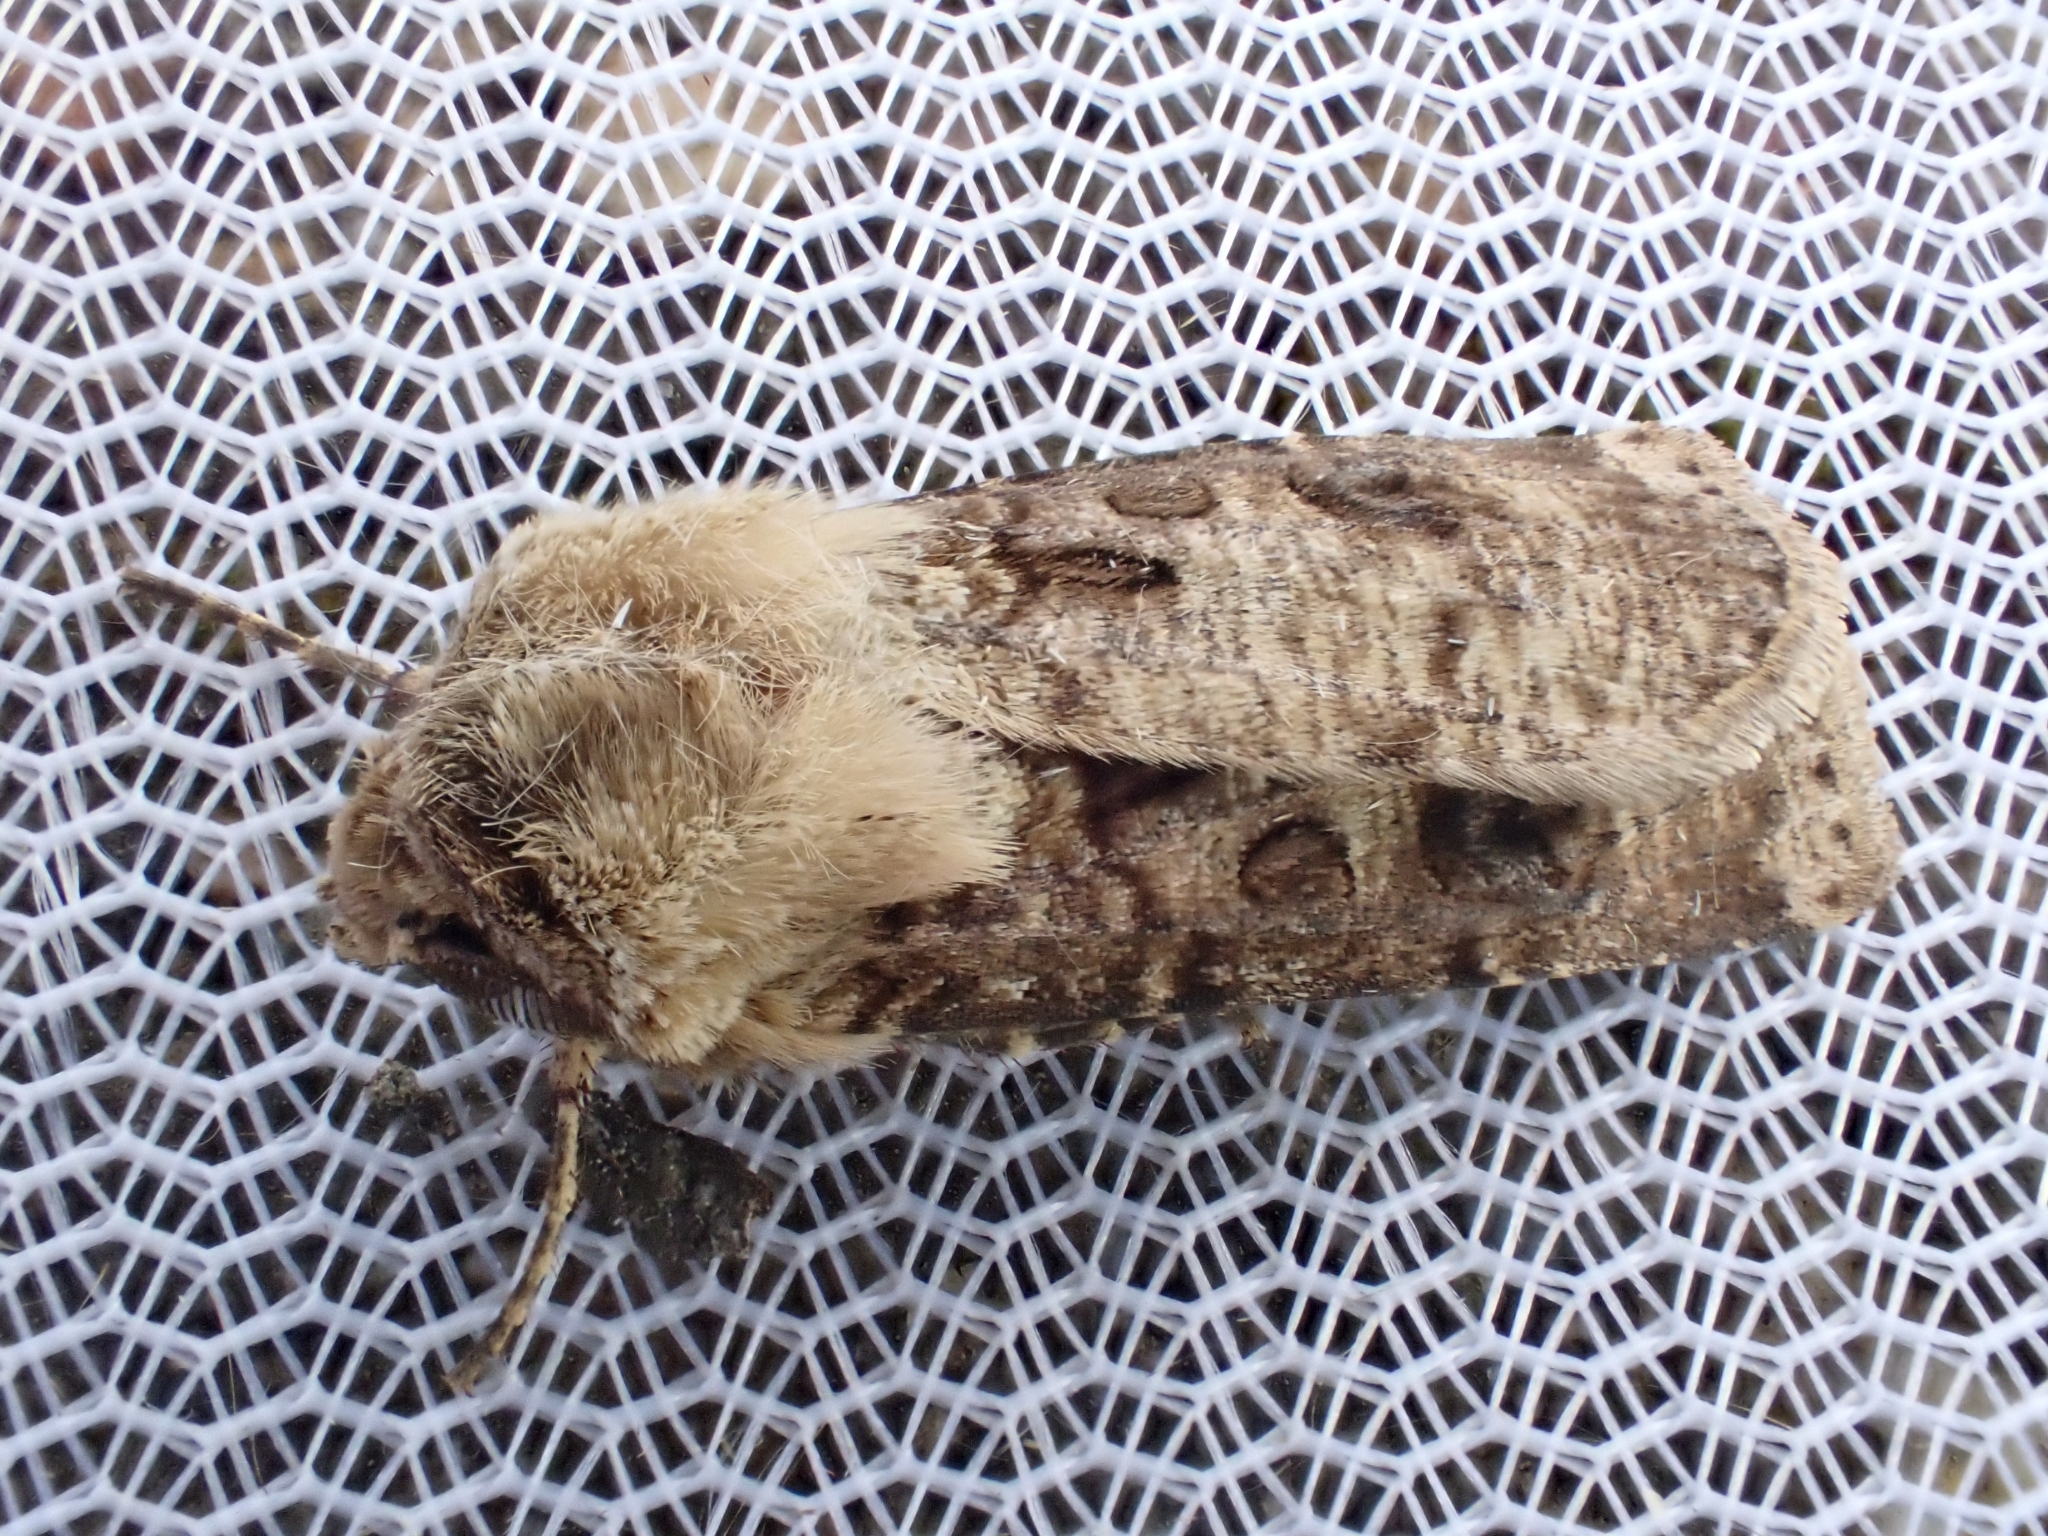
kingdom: Animalia
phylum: Arthropoda
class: Insecta
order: Lepidoptera
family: Noctuidae
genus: Agrotis
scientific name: Agrotis clavis
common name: Heart and club
